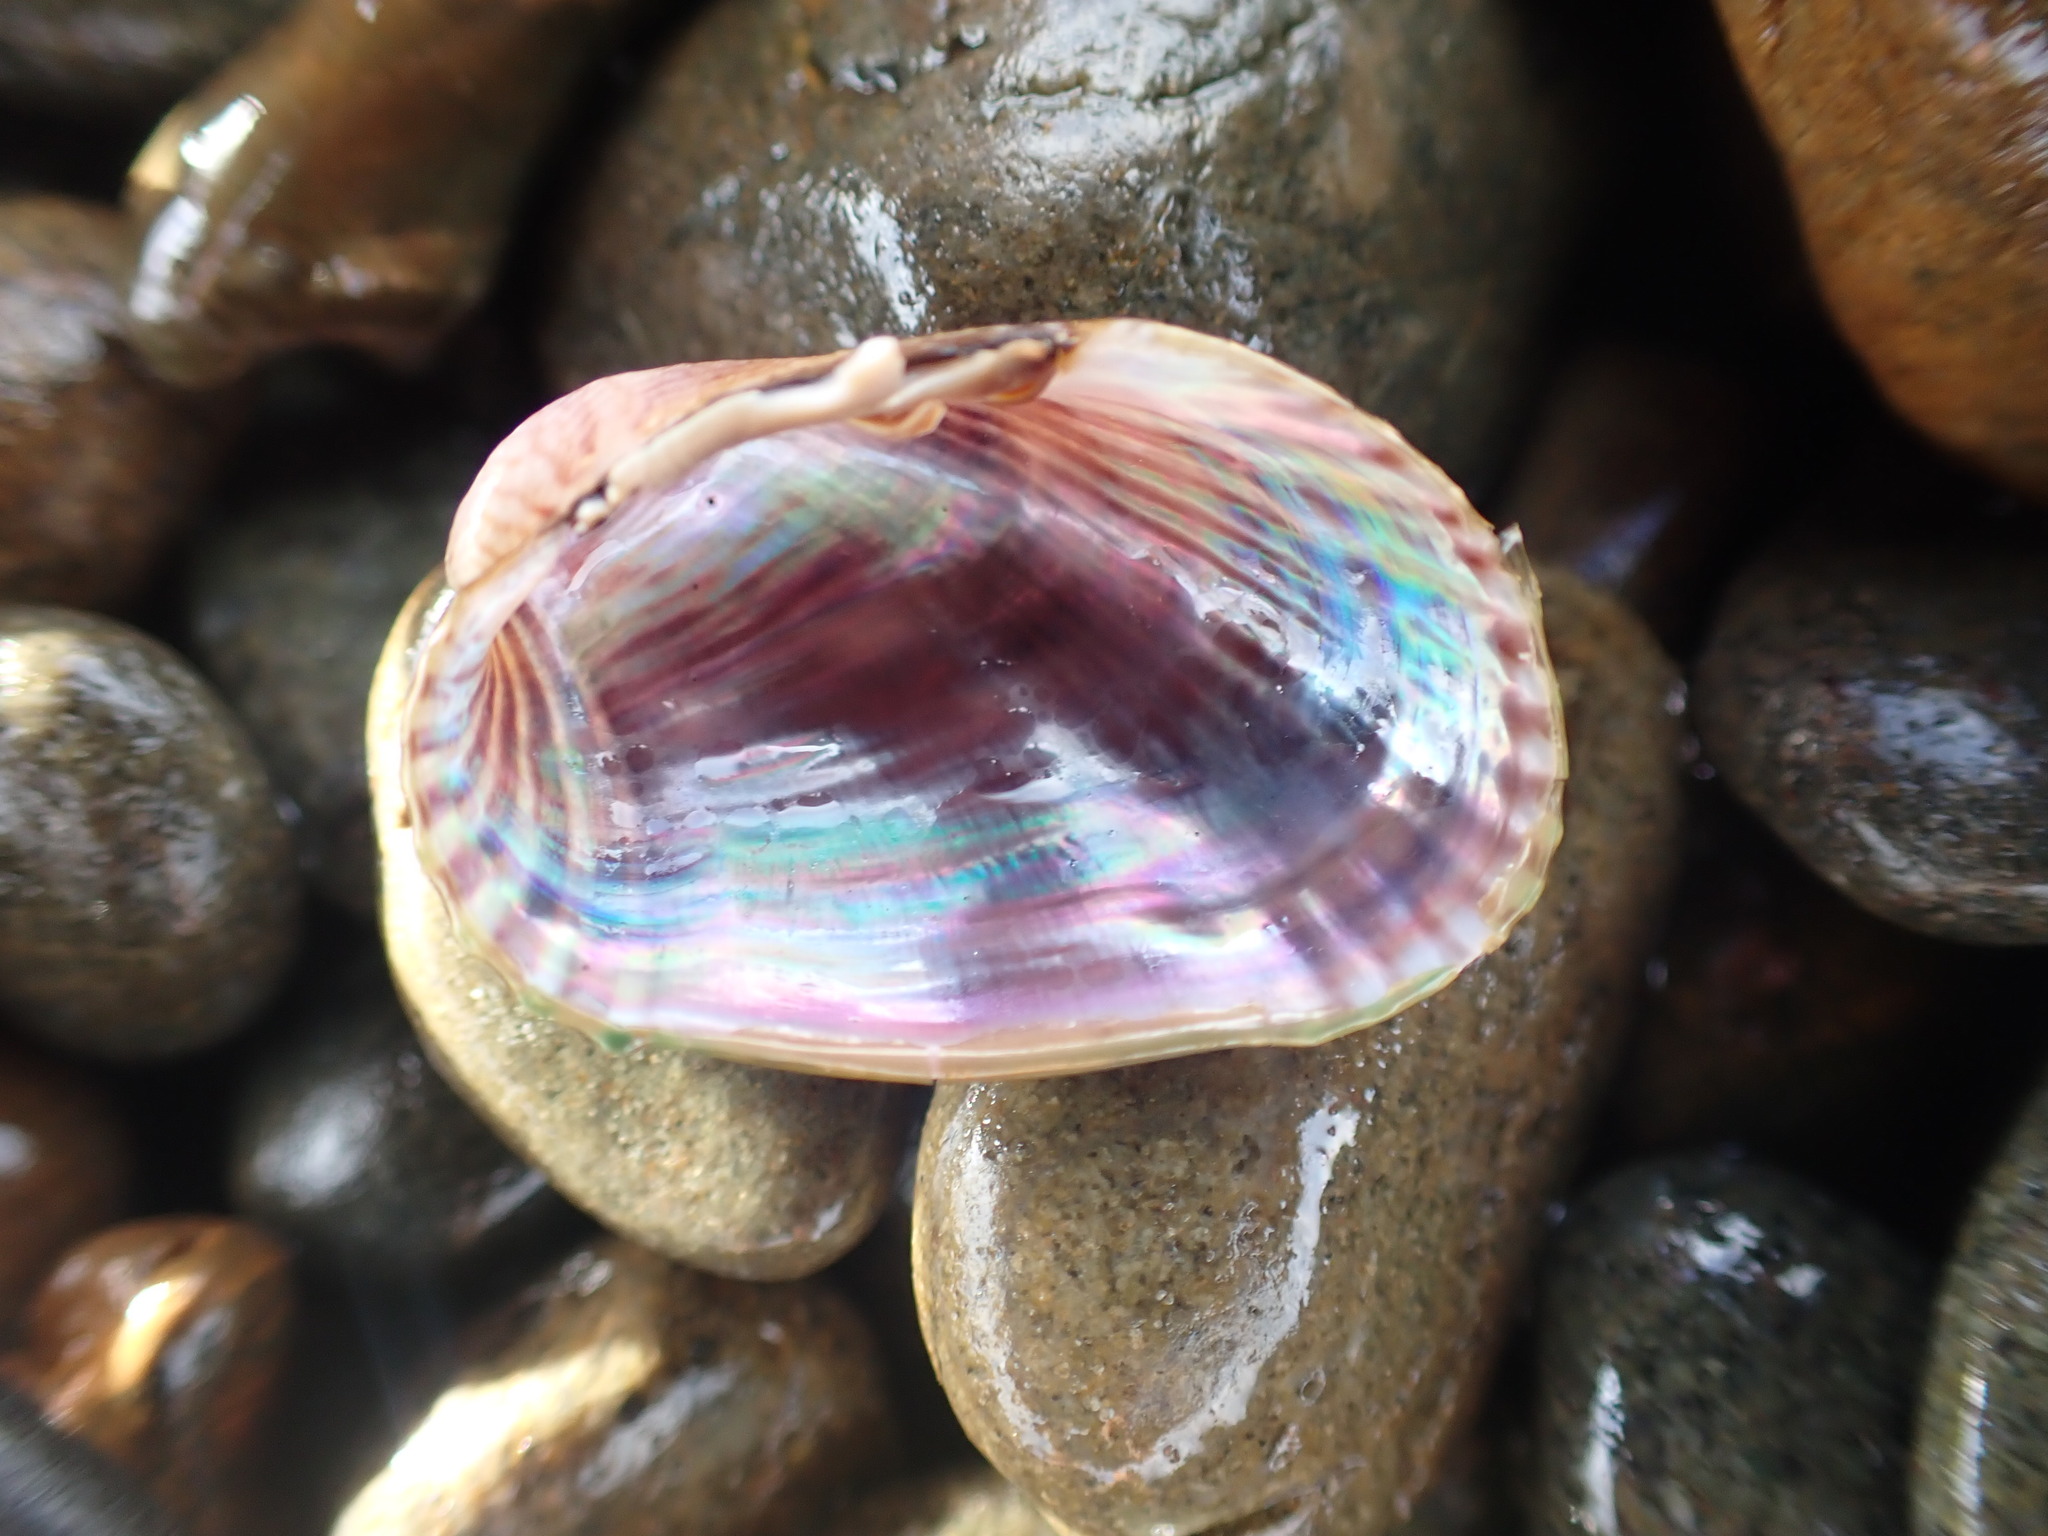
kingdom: Animalia
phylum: Mollusca
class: Bivalvia
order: Mytilida
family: Mytilidae
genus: Musculus
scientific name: Musculus impactus
